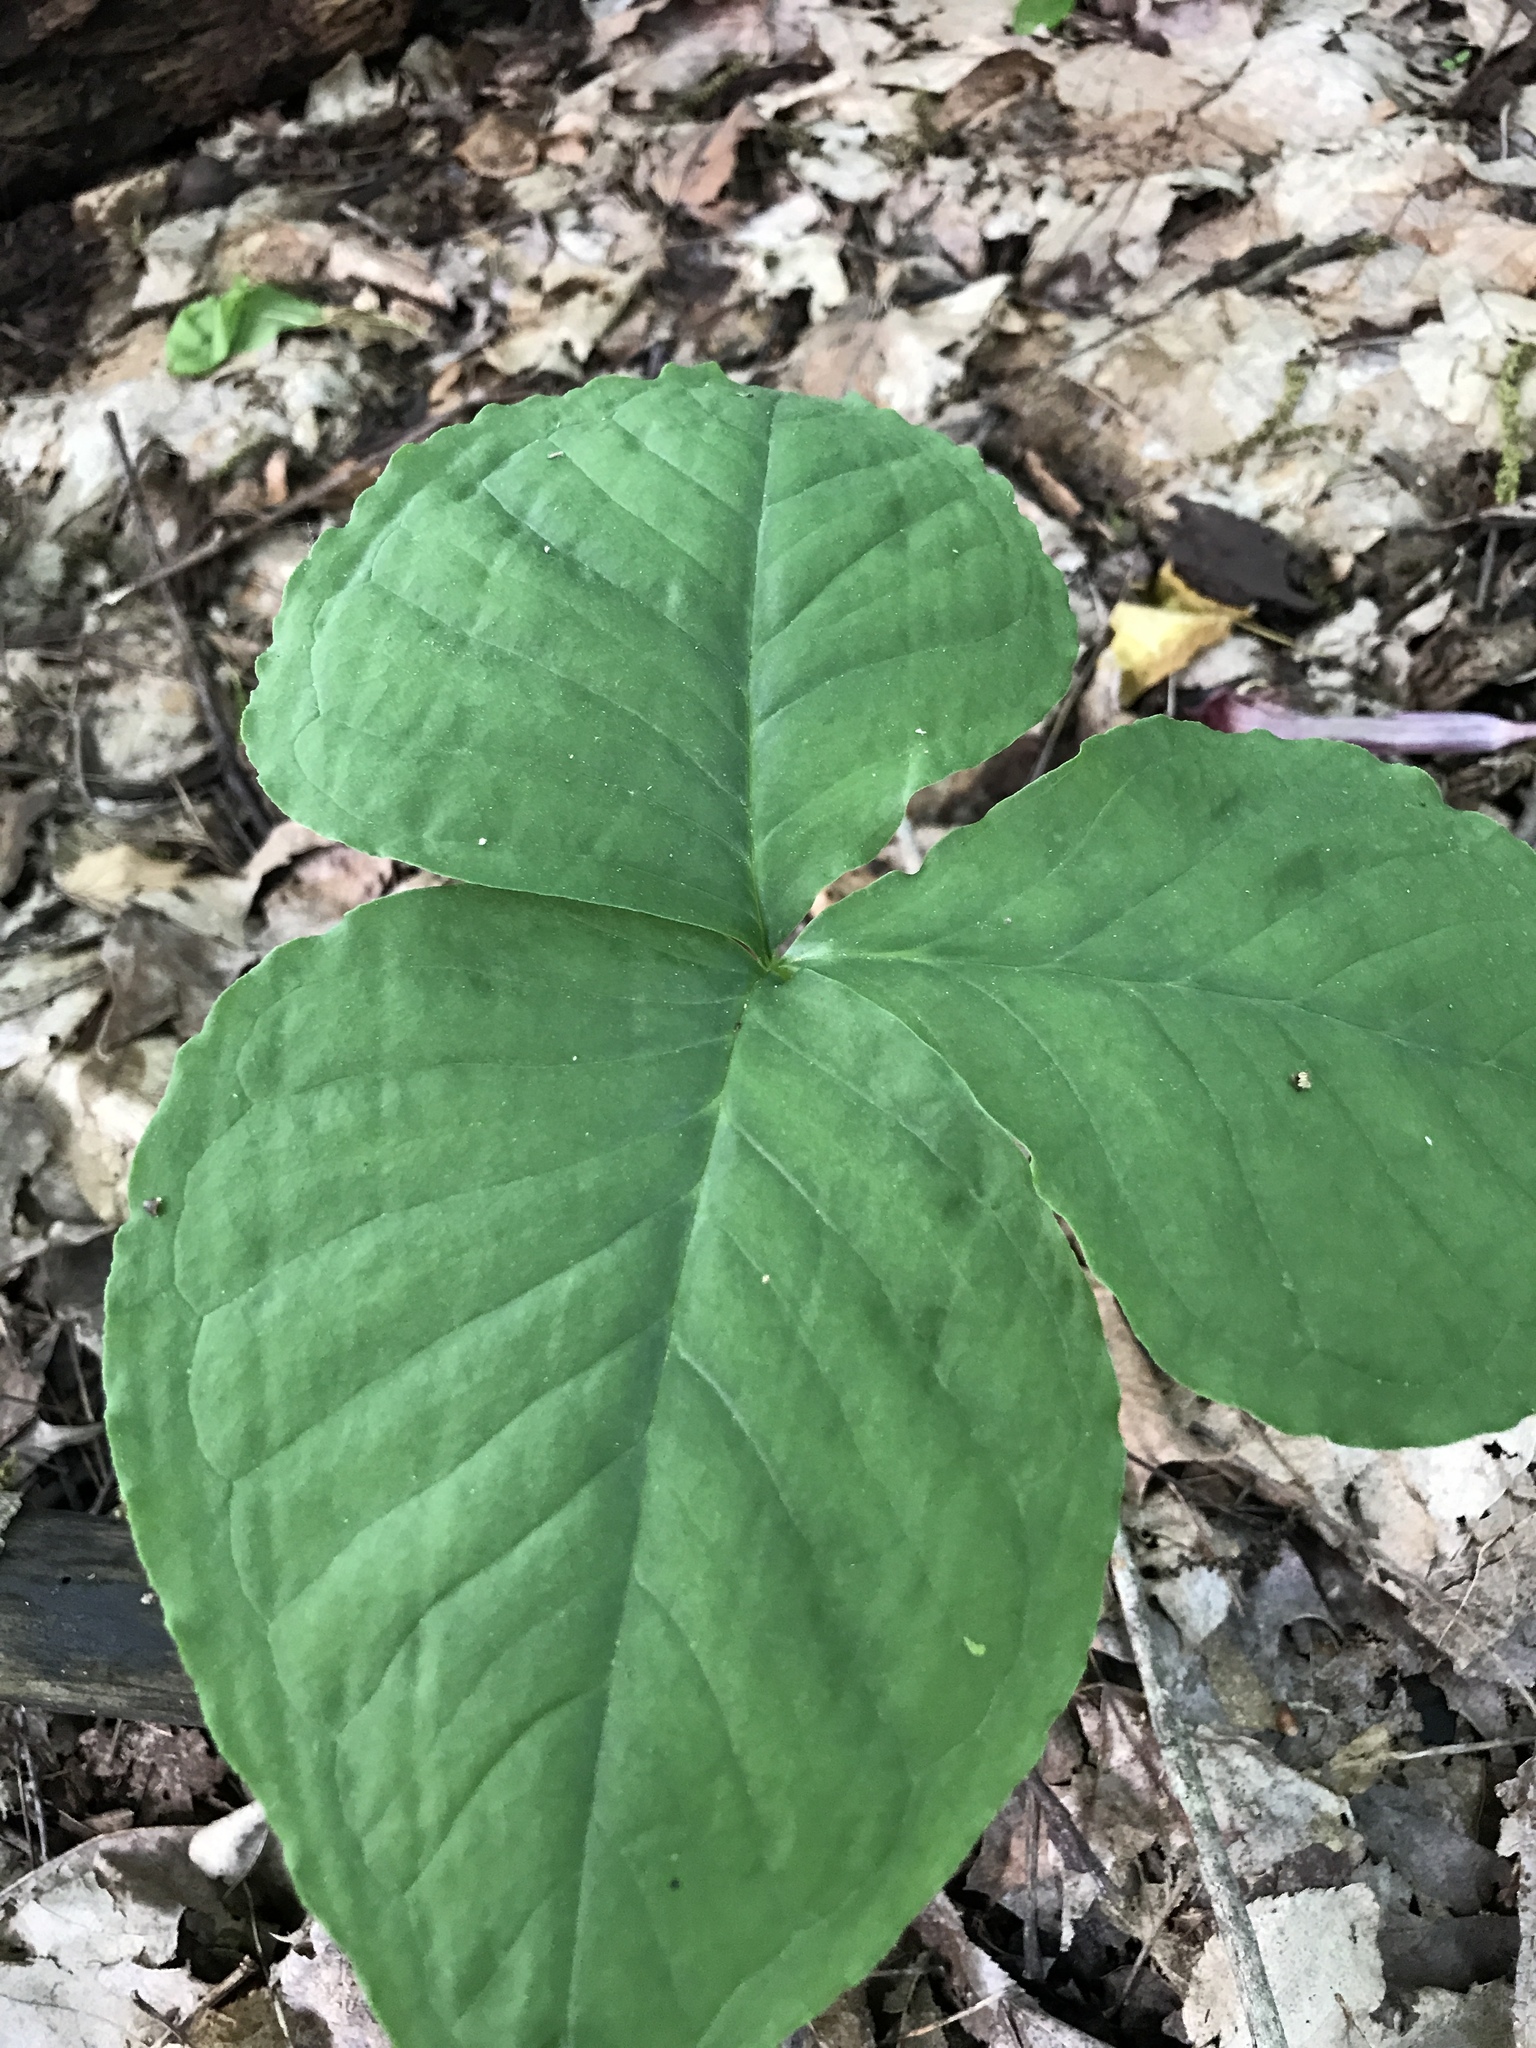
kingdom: Plantae
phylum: Tracheophyta
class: Liliopsida
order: Alismatales
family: Araceae
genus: Arisaema
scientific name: Arisaema triphyllum
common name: Jack-in-the-pulpit
